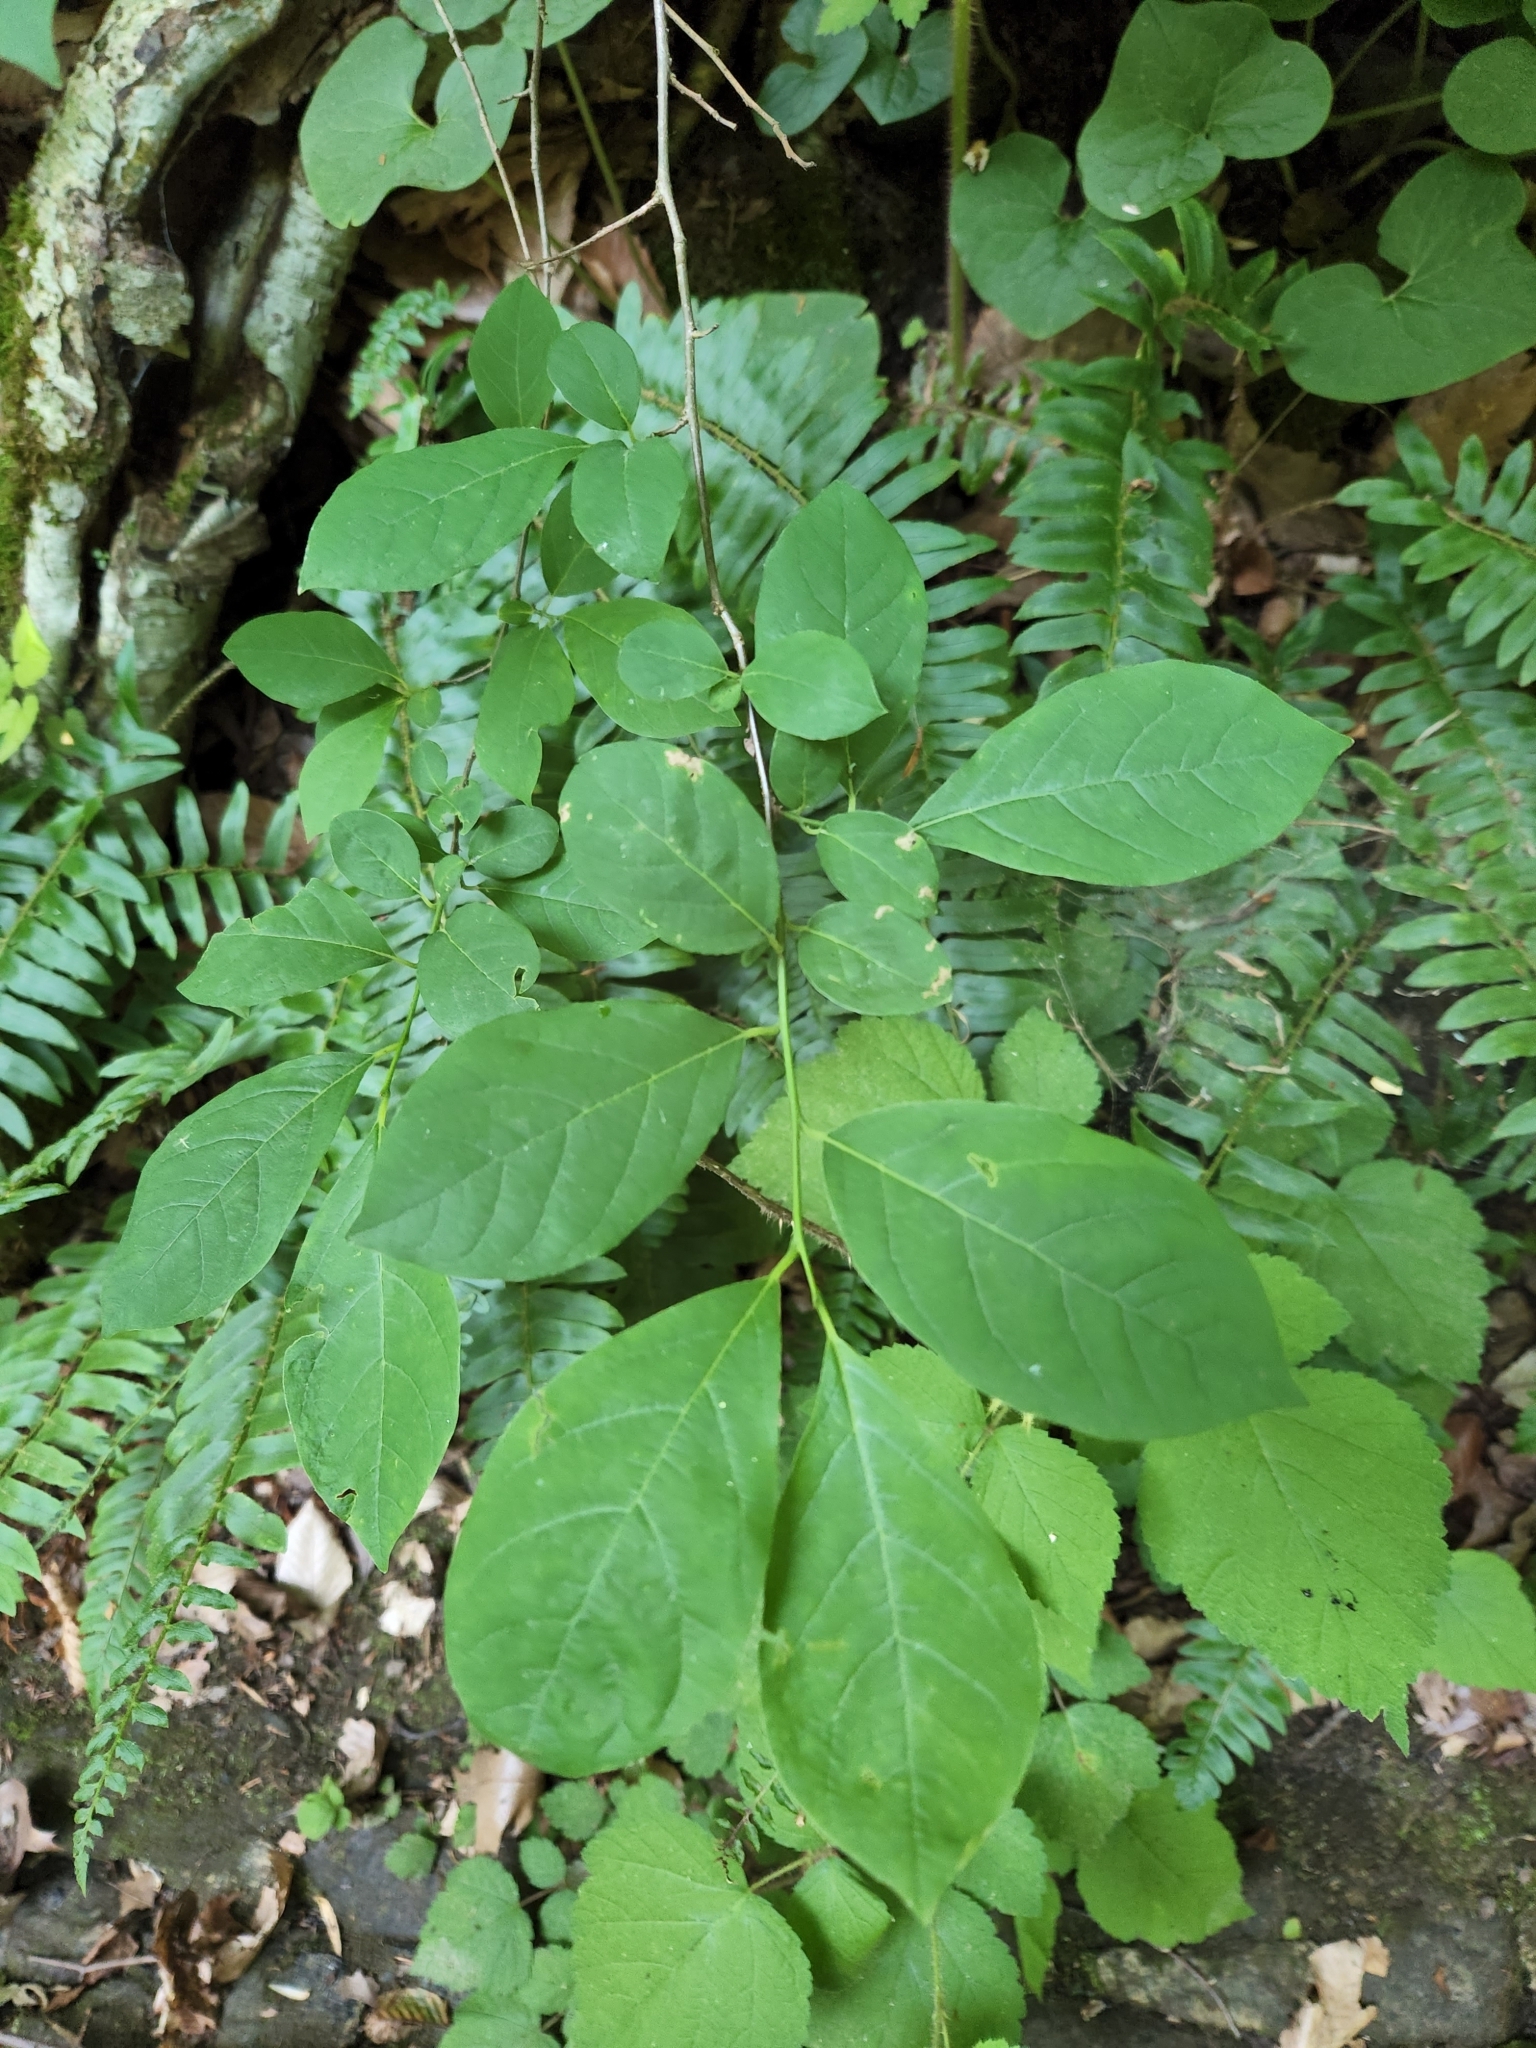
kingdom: Plantae
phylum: Tracheophyta
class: Magnoliopsida
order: Laurales
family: Lauraceae
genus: Lindera
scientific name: Lindera benzoin
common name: Spicebush
